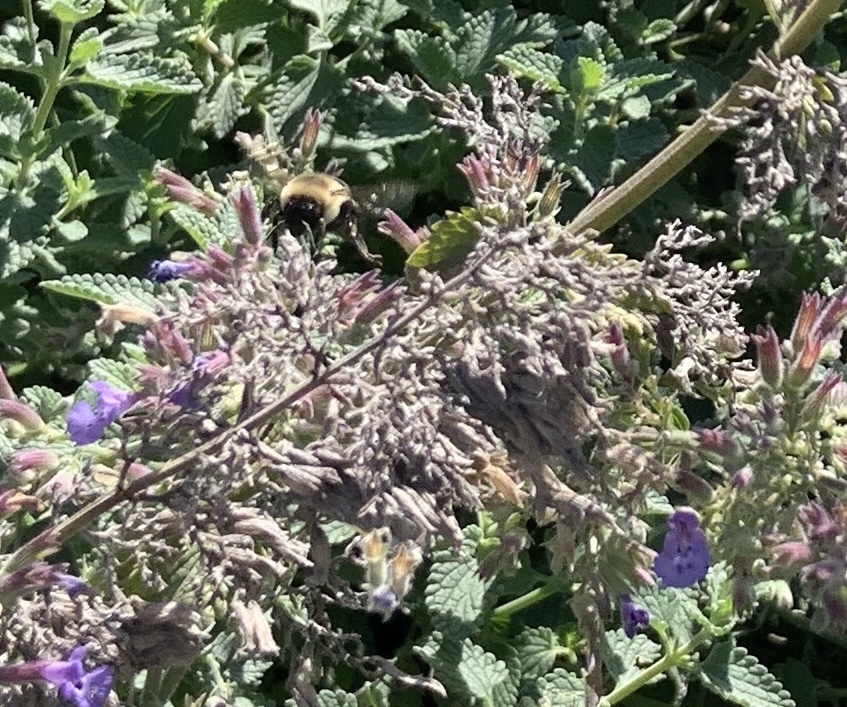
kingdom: Animalia
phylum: Arthropoda
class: Insecta
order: Hymenoptera
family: Apidae
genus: Bombus
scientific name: Bombus impatiens
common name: Common eastern bumble bee
